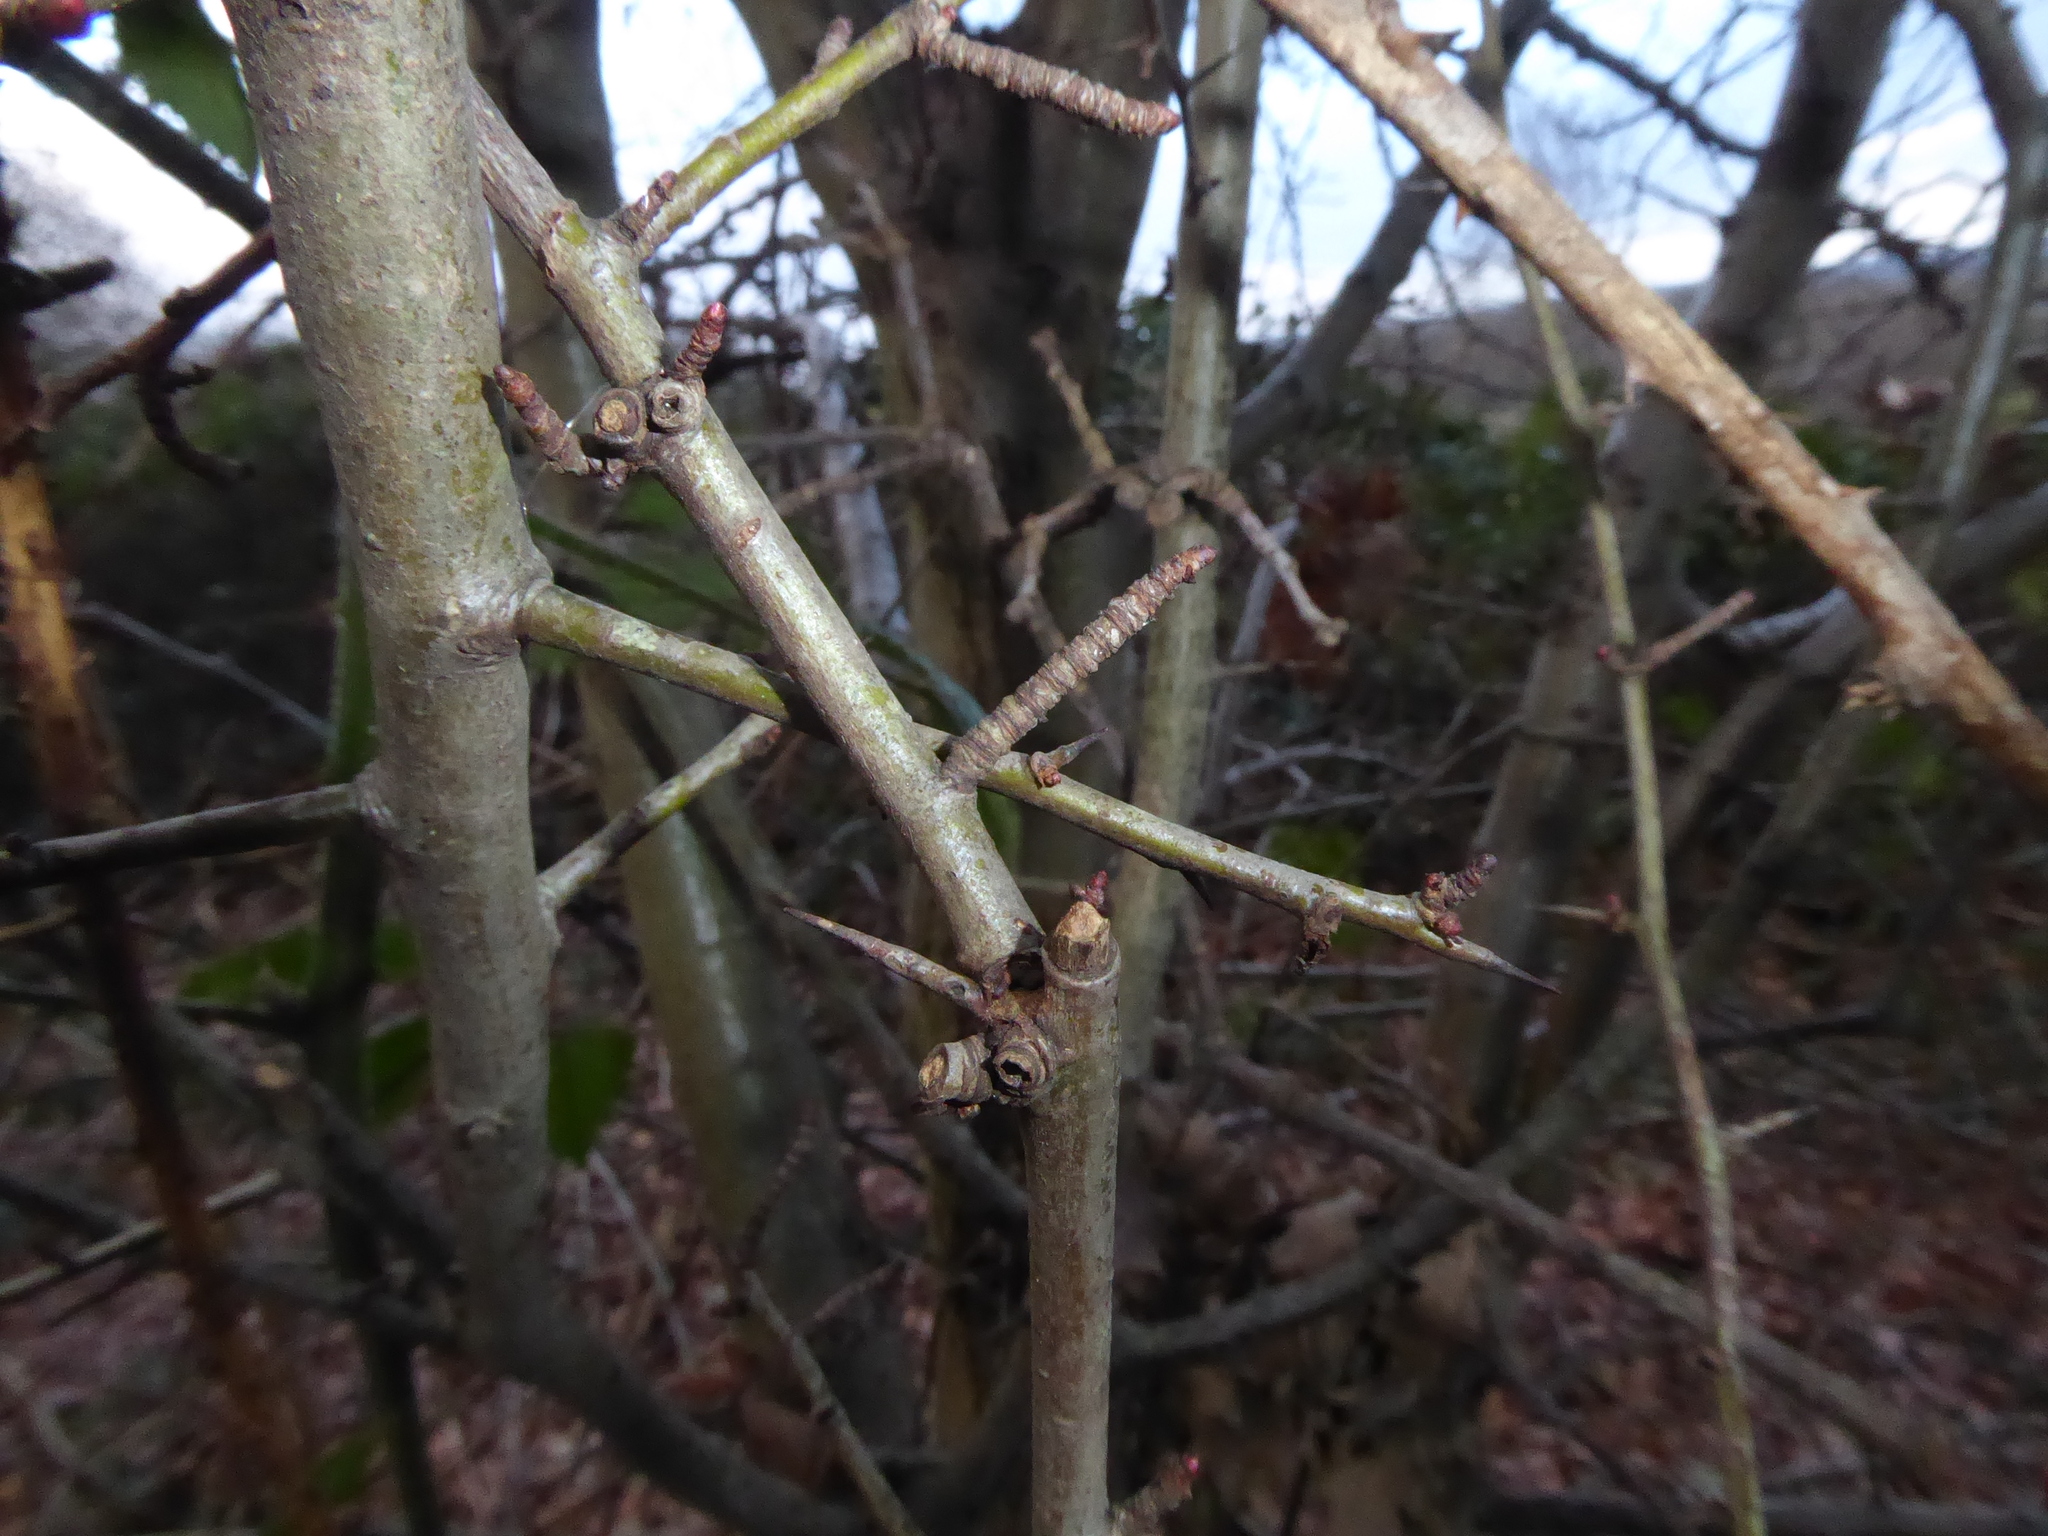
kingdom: Plantae
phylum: Tracheophyta
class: Magnoliopsida
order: Rosales
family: Rosaceae
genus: Prunus
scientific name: Prunus spinosa
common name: Blackthorn
